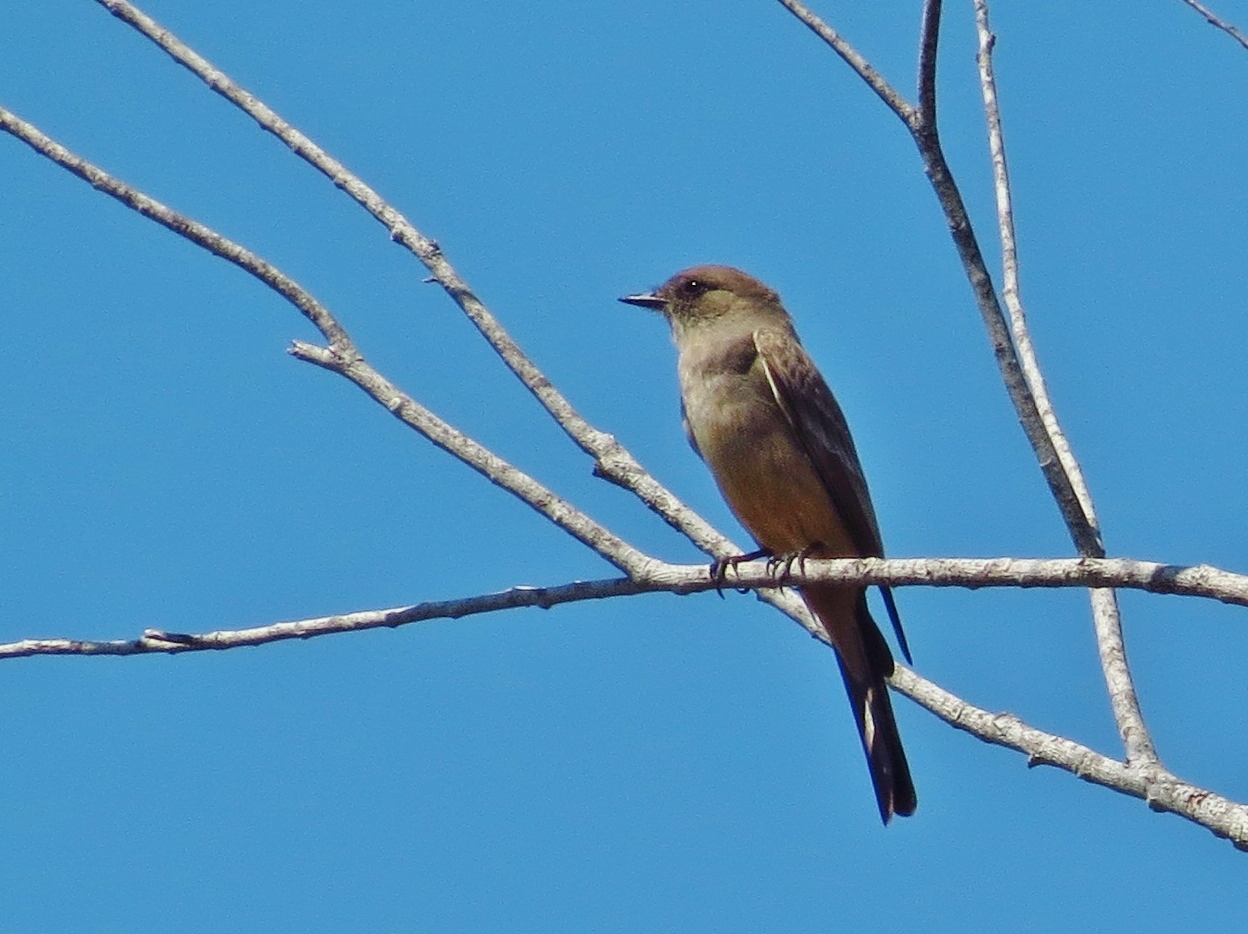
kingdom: Animalia
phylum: Chordata
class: Aves
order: Passeriformes
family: Tyrannidae
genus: Sayornis
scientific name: Sayornis saya
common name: Say's phoebe
